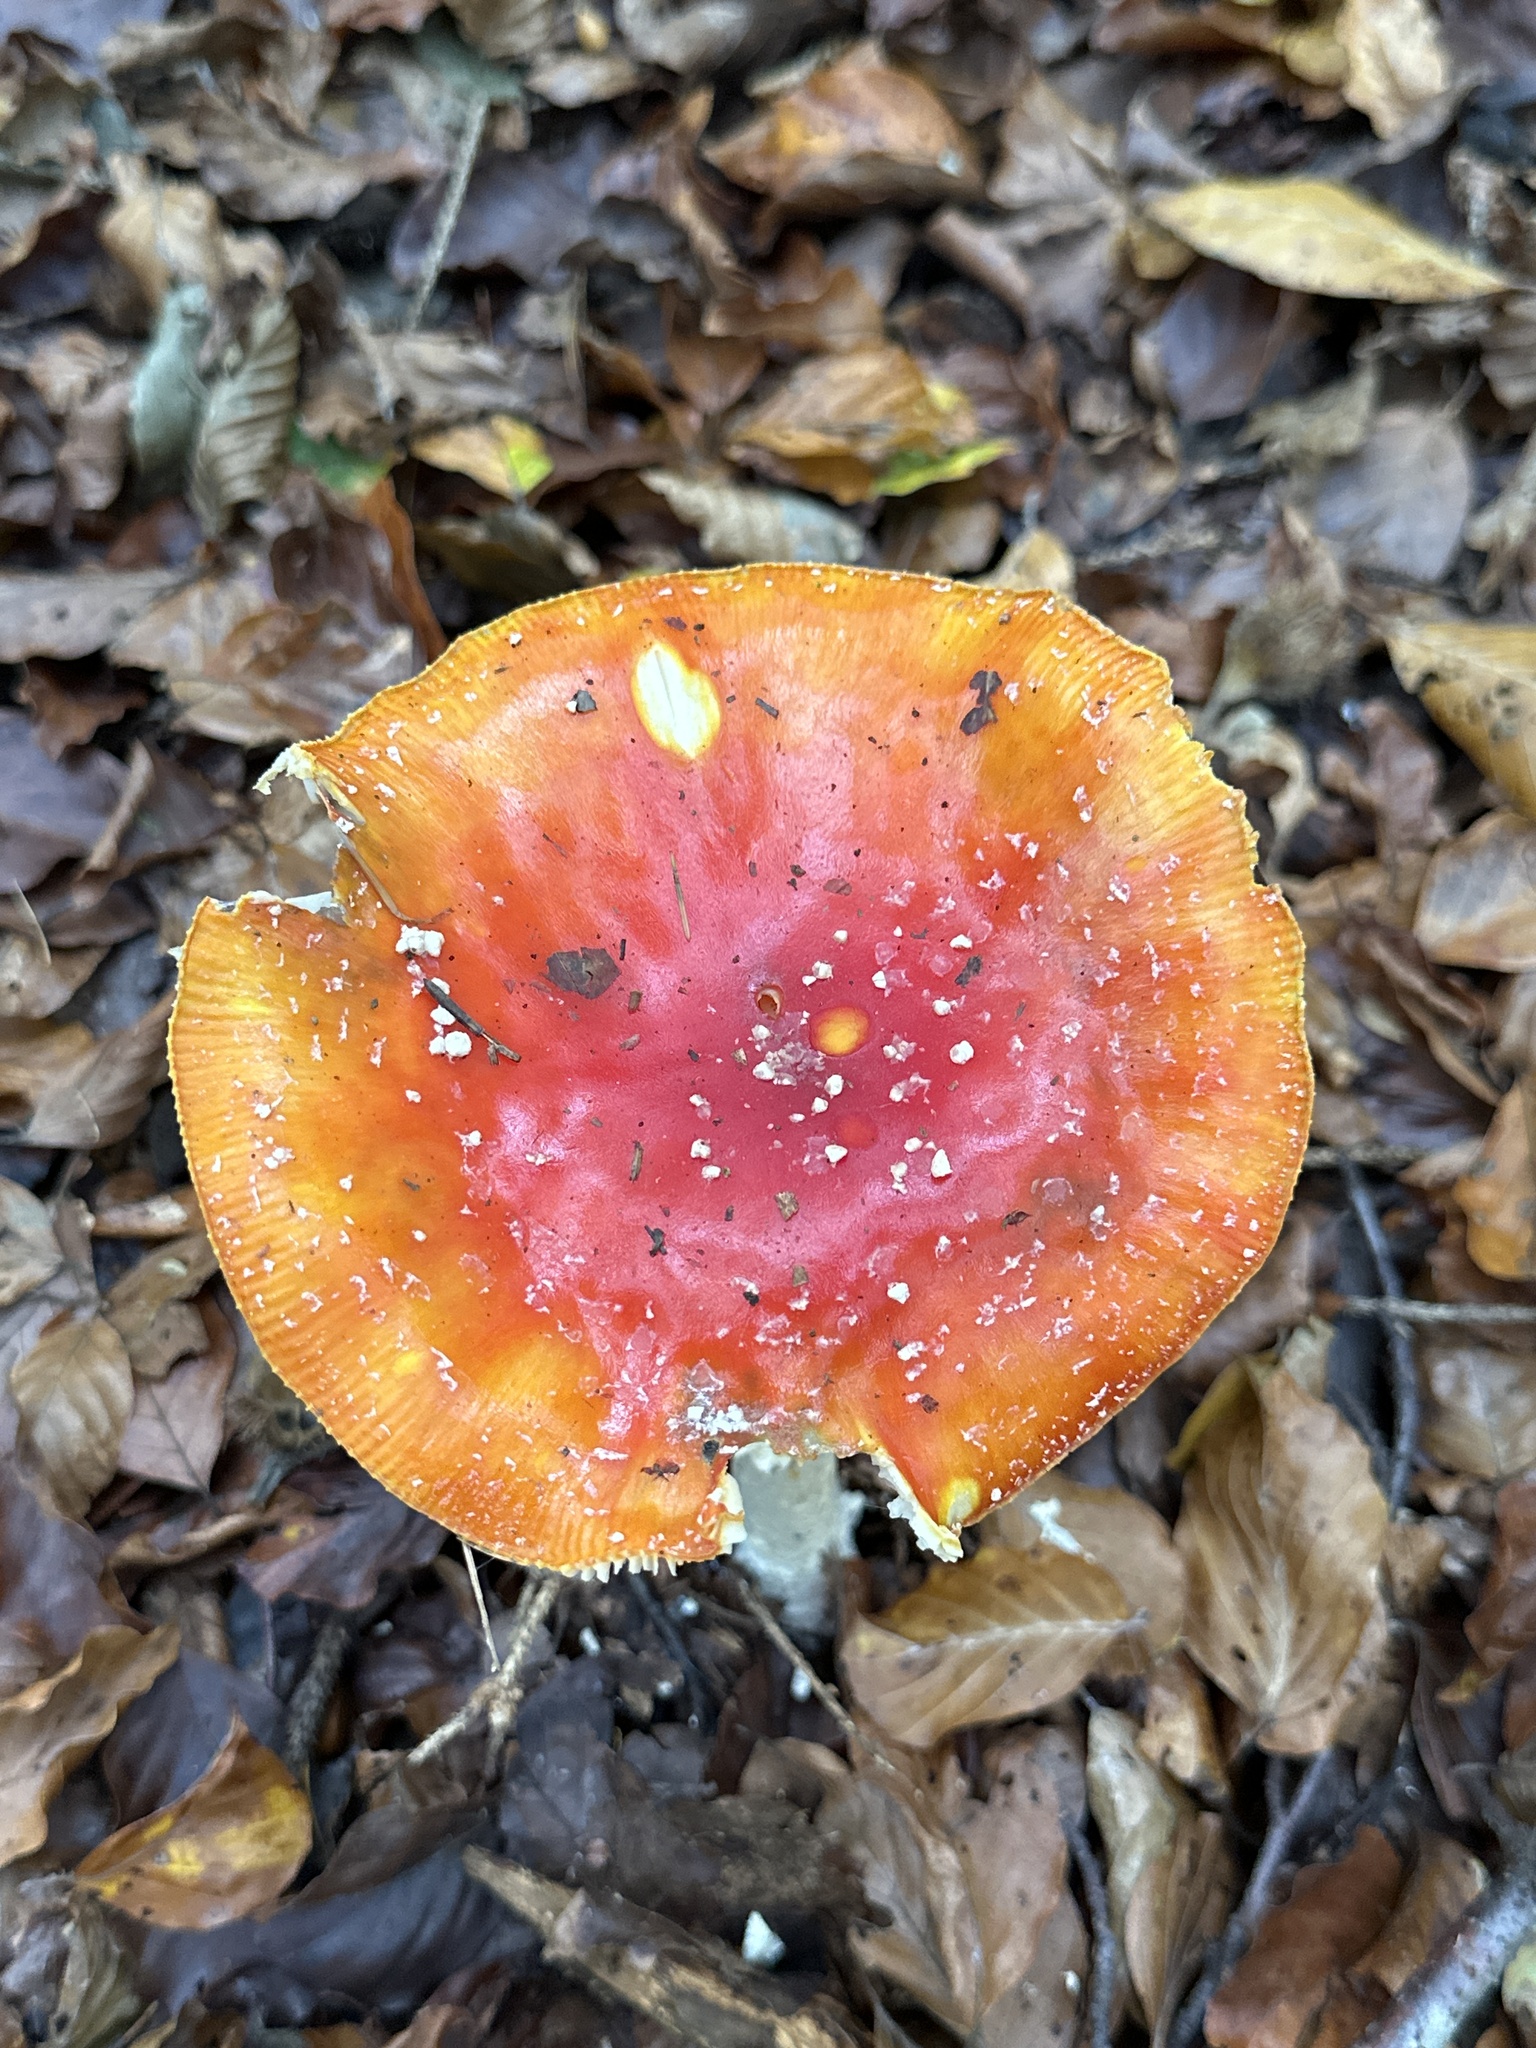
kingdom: Fungi
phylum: Basidiomycota
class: Agaricomycetes
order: Agaricales
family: Amanitaceae
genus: Amanita
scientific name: Amanita muscaria
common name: Fly agaric
